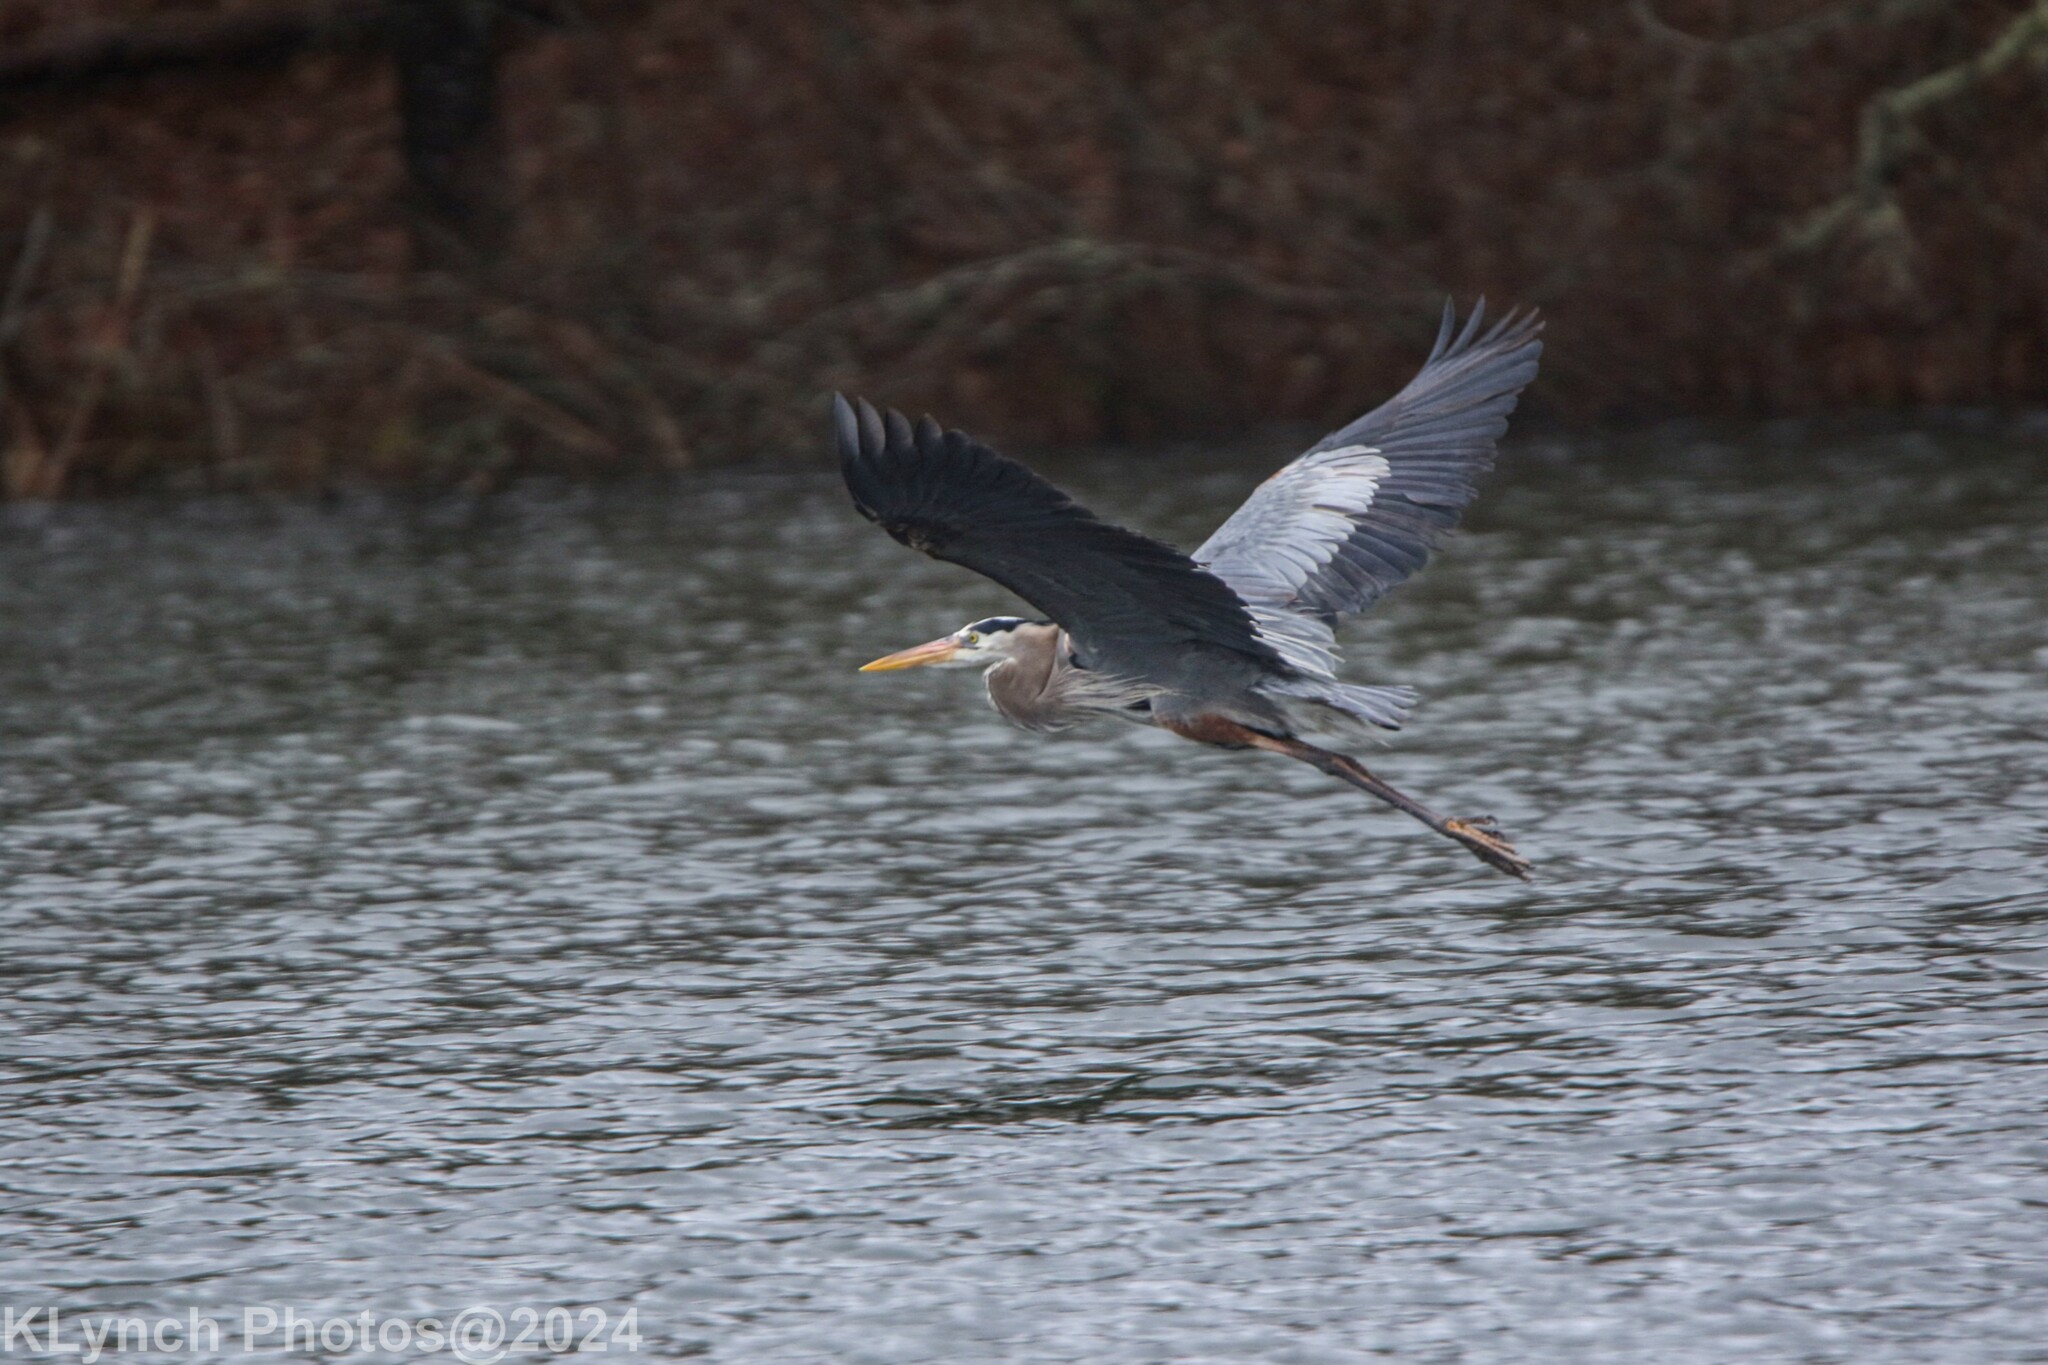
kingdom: Animalia
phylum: Chordata
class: Aves
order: Pelecaniformes
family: Ardeidae
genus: Ardea
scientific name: Ardea herodias
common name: Great blue heron
